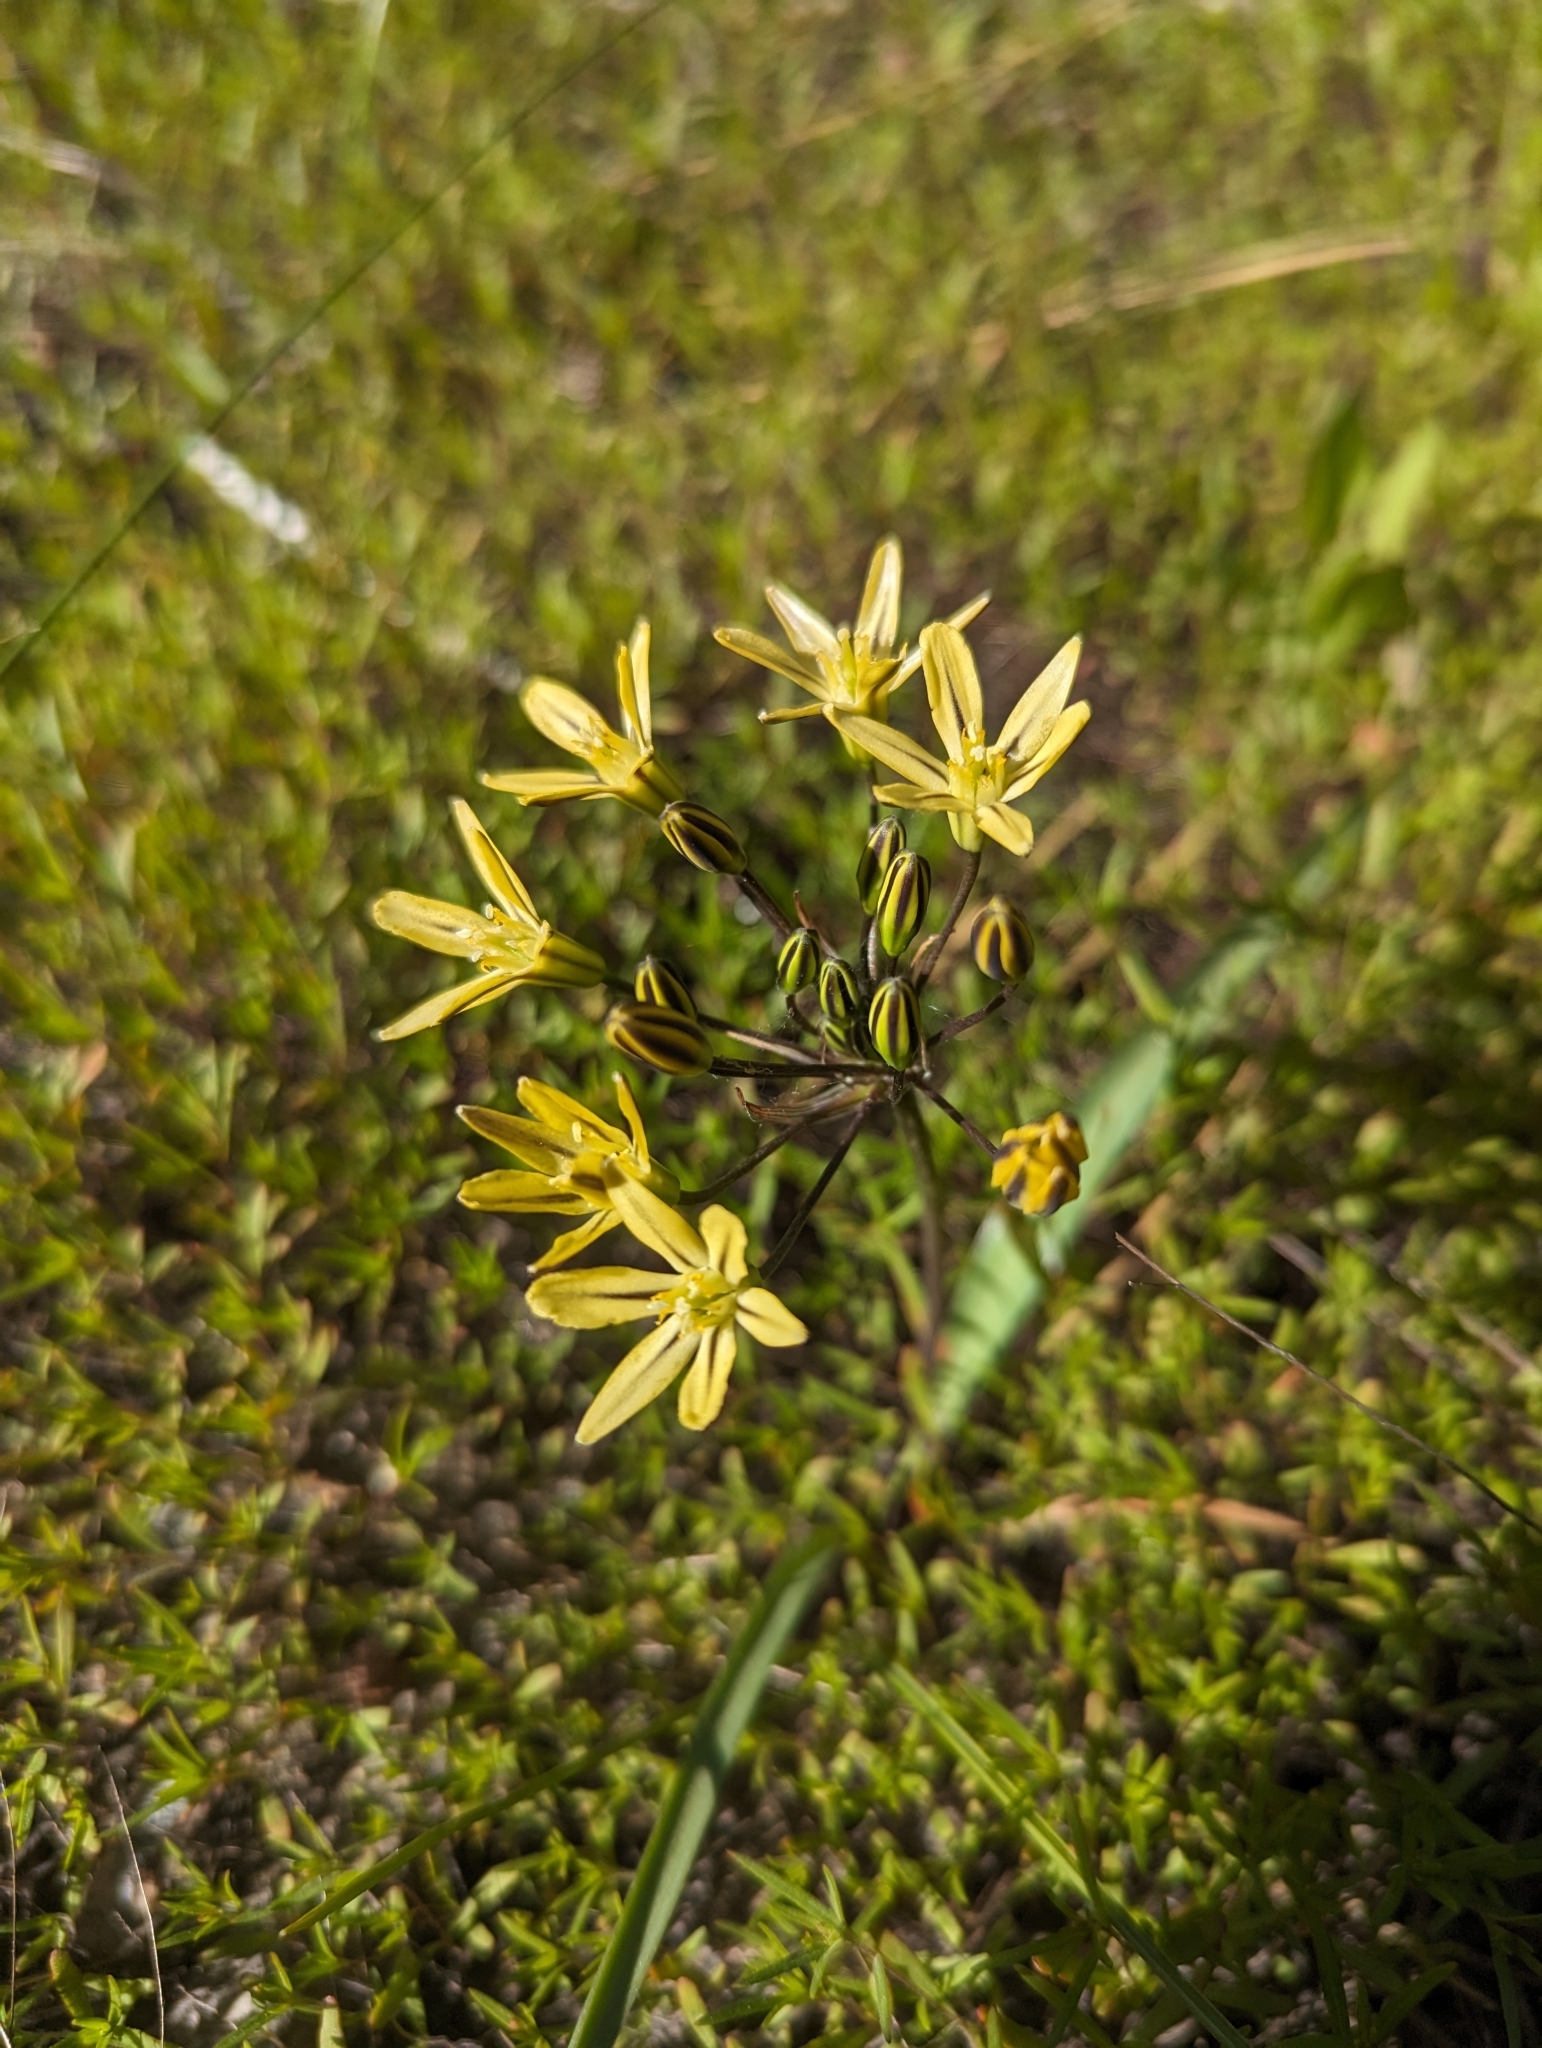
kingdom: Plantae
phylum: Tracheophyta
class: Liliopsida
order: Asparagales
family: Asparagaceae
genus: Triteleia
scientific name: Triteleia ixioides
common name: Yellow-brodiaea
